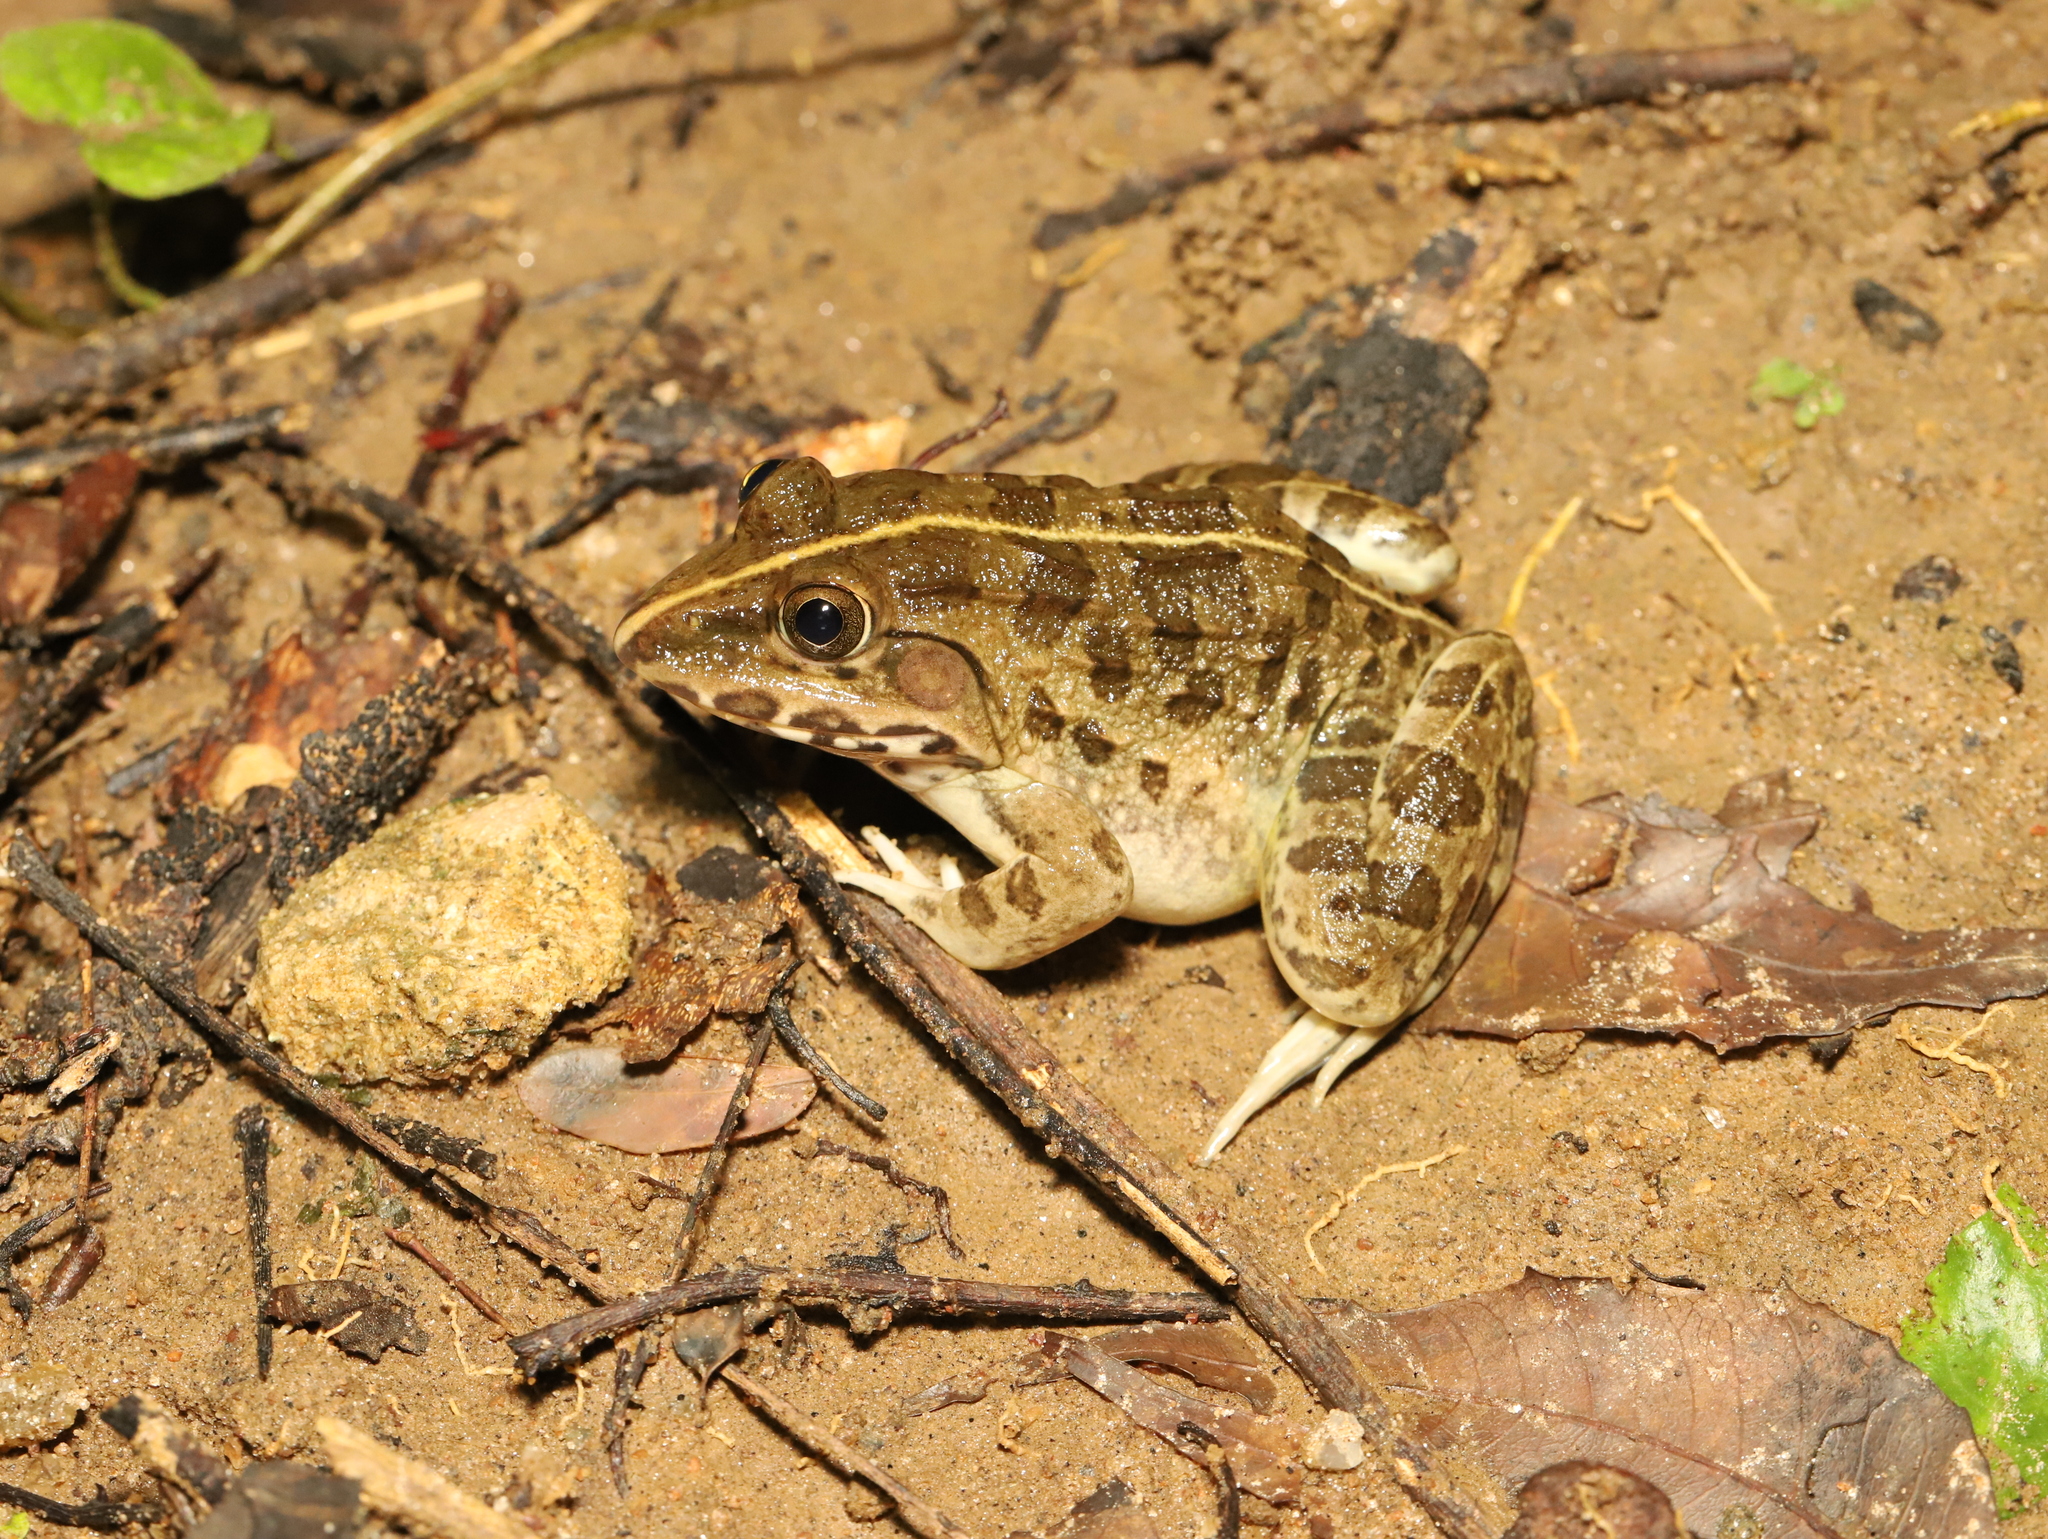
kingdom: Animalia
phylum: Chordata
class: Amphibia
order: Anura
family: Dicroglossidae
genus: Hoplobatrachus
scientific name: Hoplobatrachus crassus
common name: Jerdon's bullfrog
